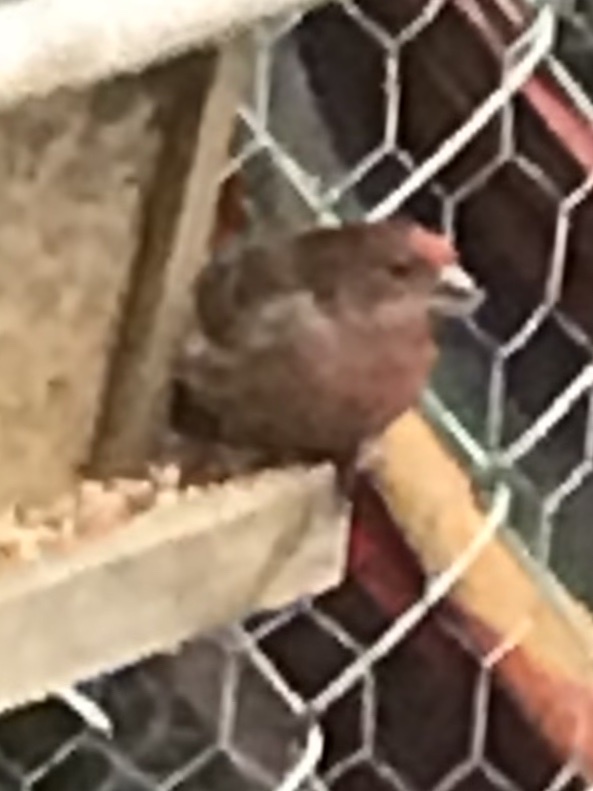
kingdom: Animalia
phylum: Chordata
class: Aves
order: Passeriformes
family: Fringillidae
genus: Haemorhous
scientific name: Haemorhous mexicanus
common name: House finch
